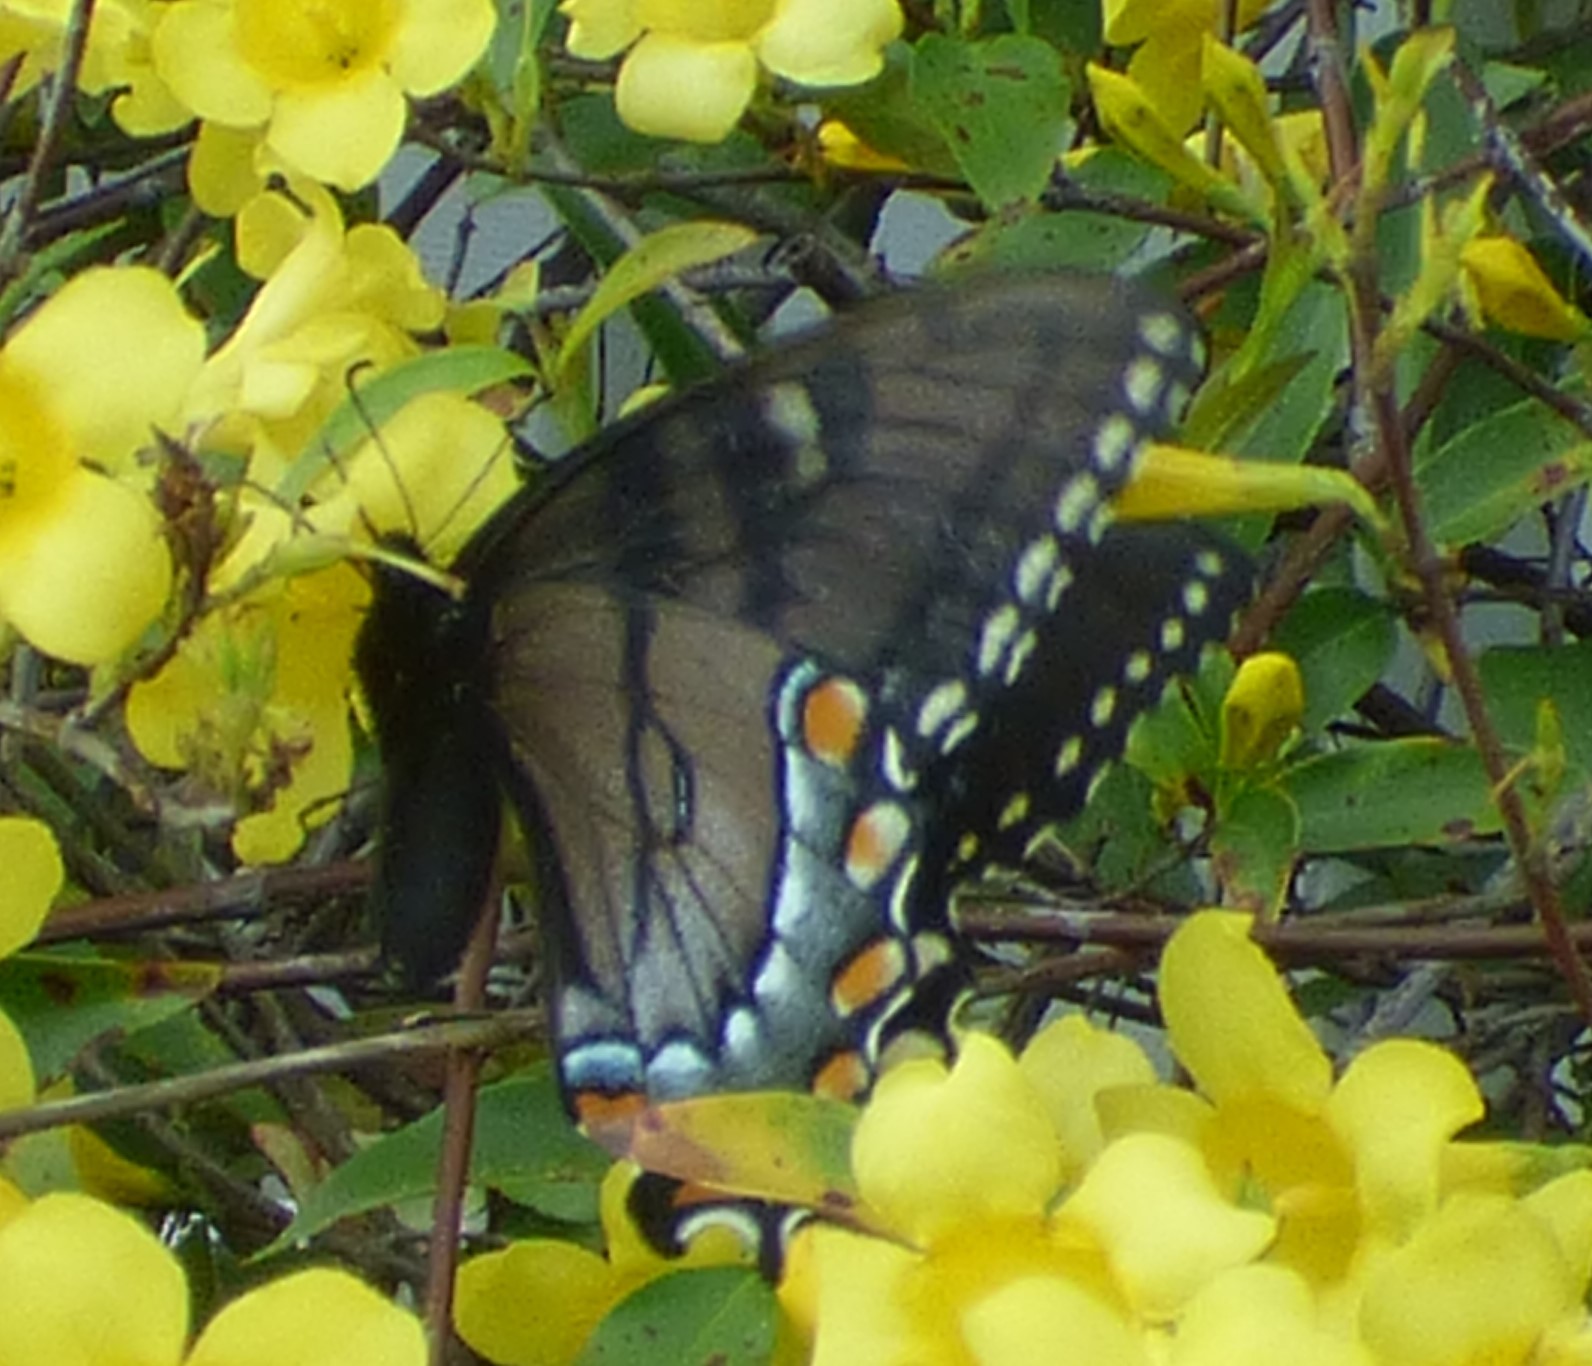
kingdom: Animalia
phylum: Arthropoda
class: Insecta
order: Lepidoptera
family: Papilionidae
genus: Papilio
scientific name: Papilio glaucus
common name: Tiger swallowtail
